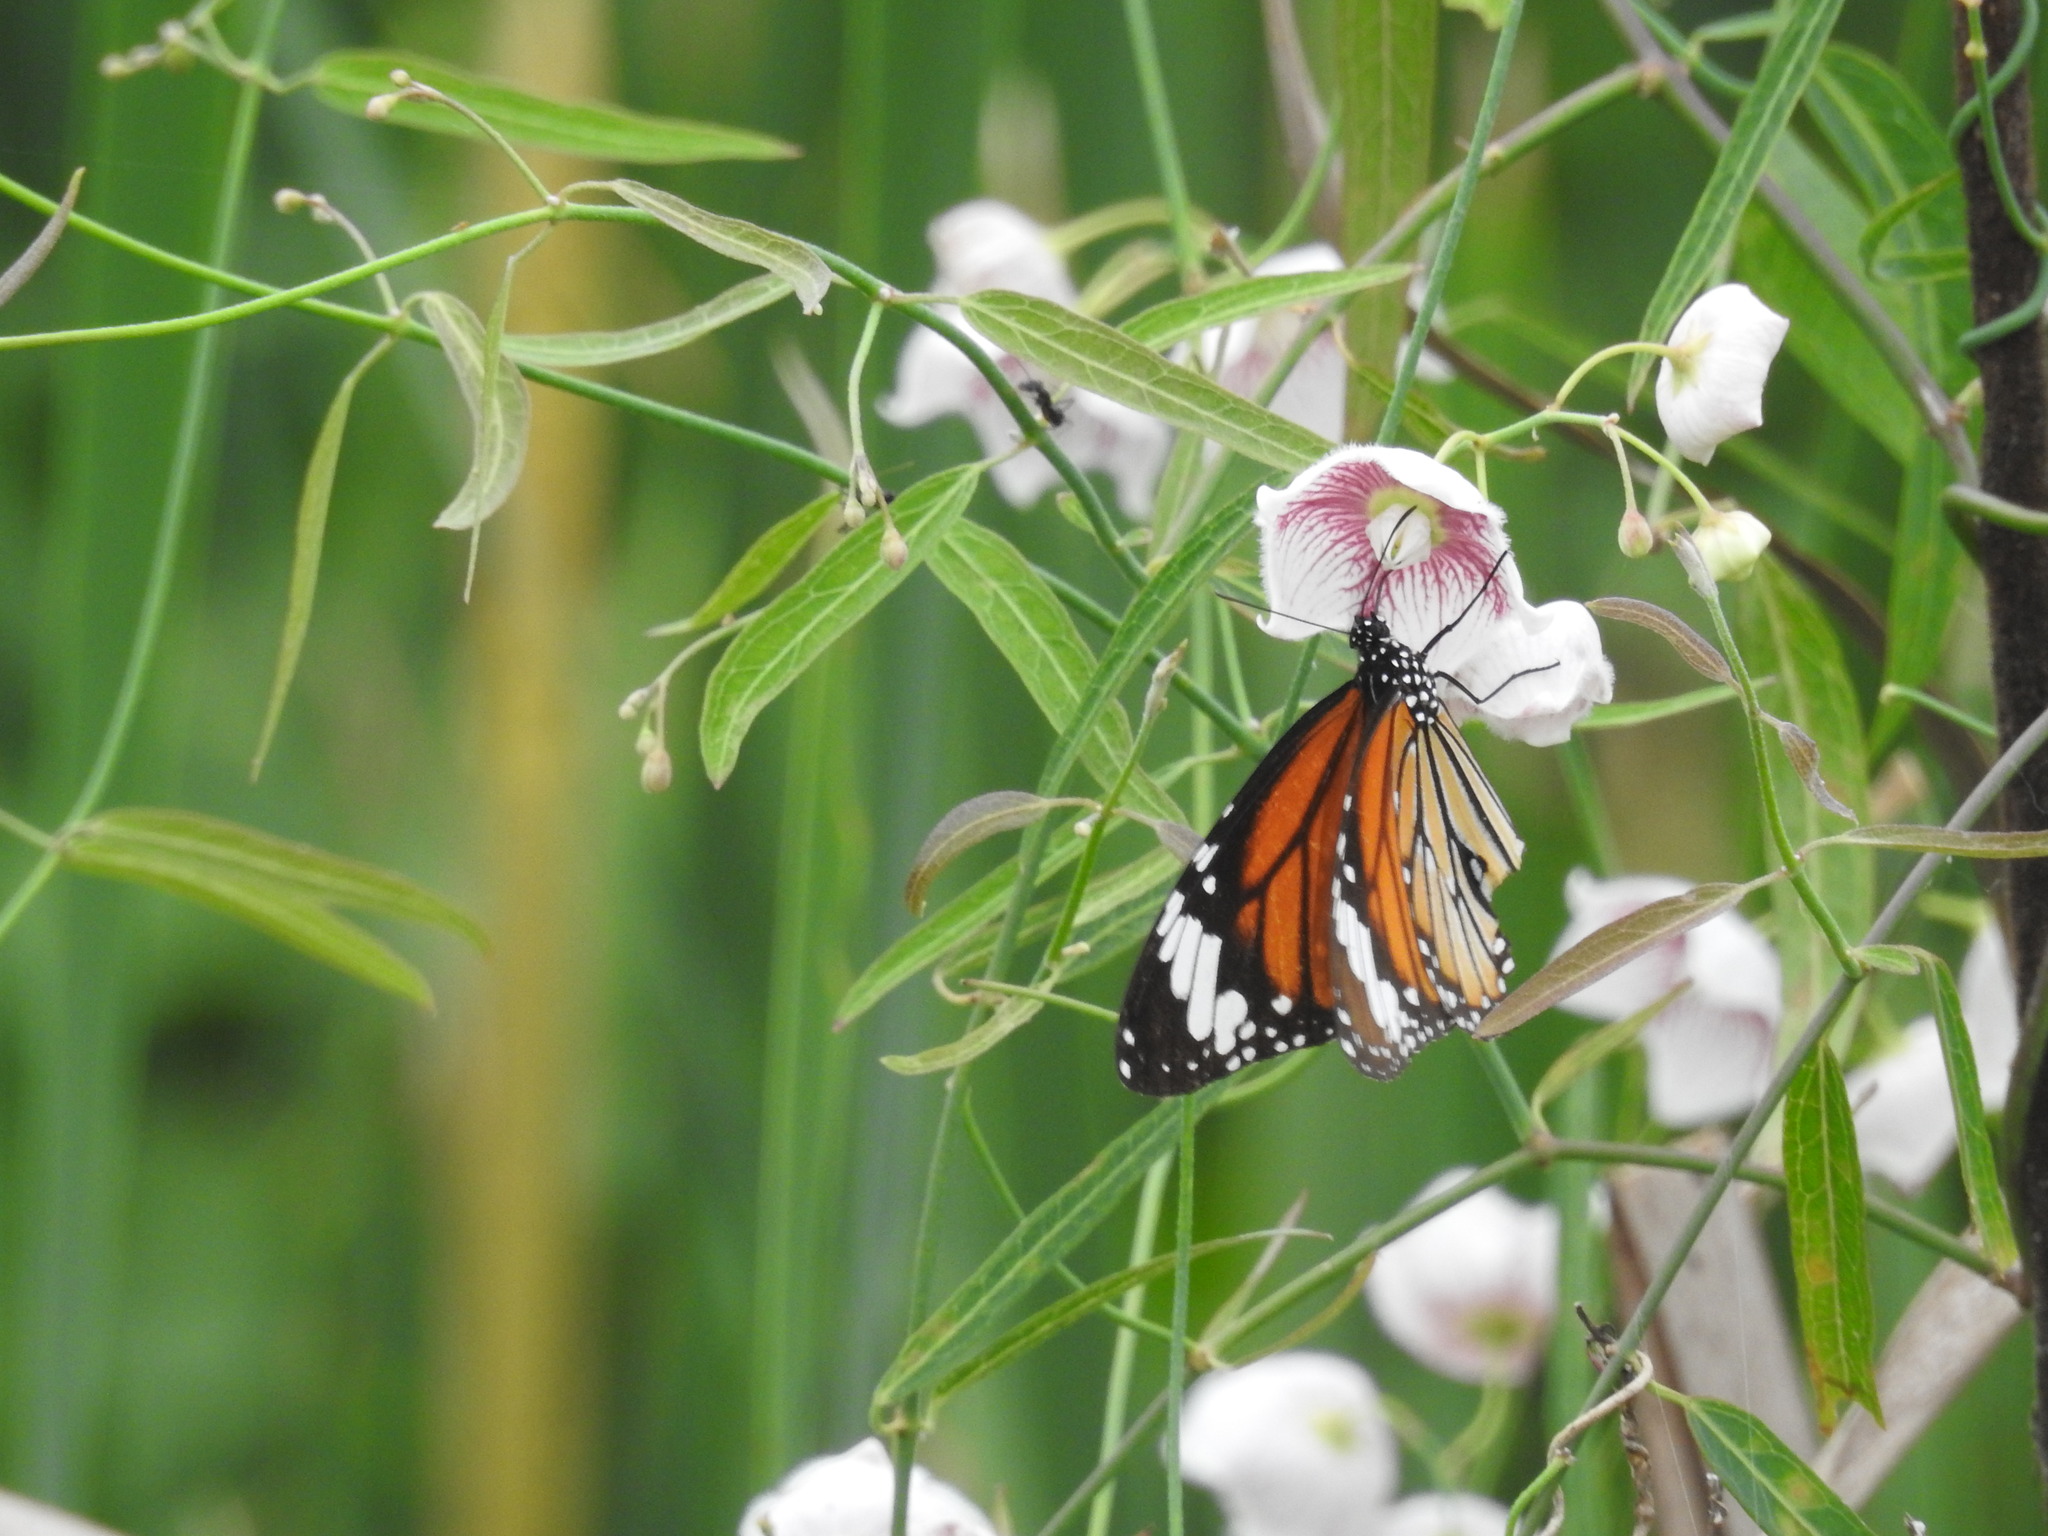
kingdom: Animalia
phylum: Arthropoda
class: Insecta
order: Lepidoptera
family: Nymphalidae
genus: Danaus
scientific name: Danaus genutia
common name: Common tiger butterfly
